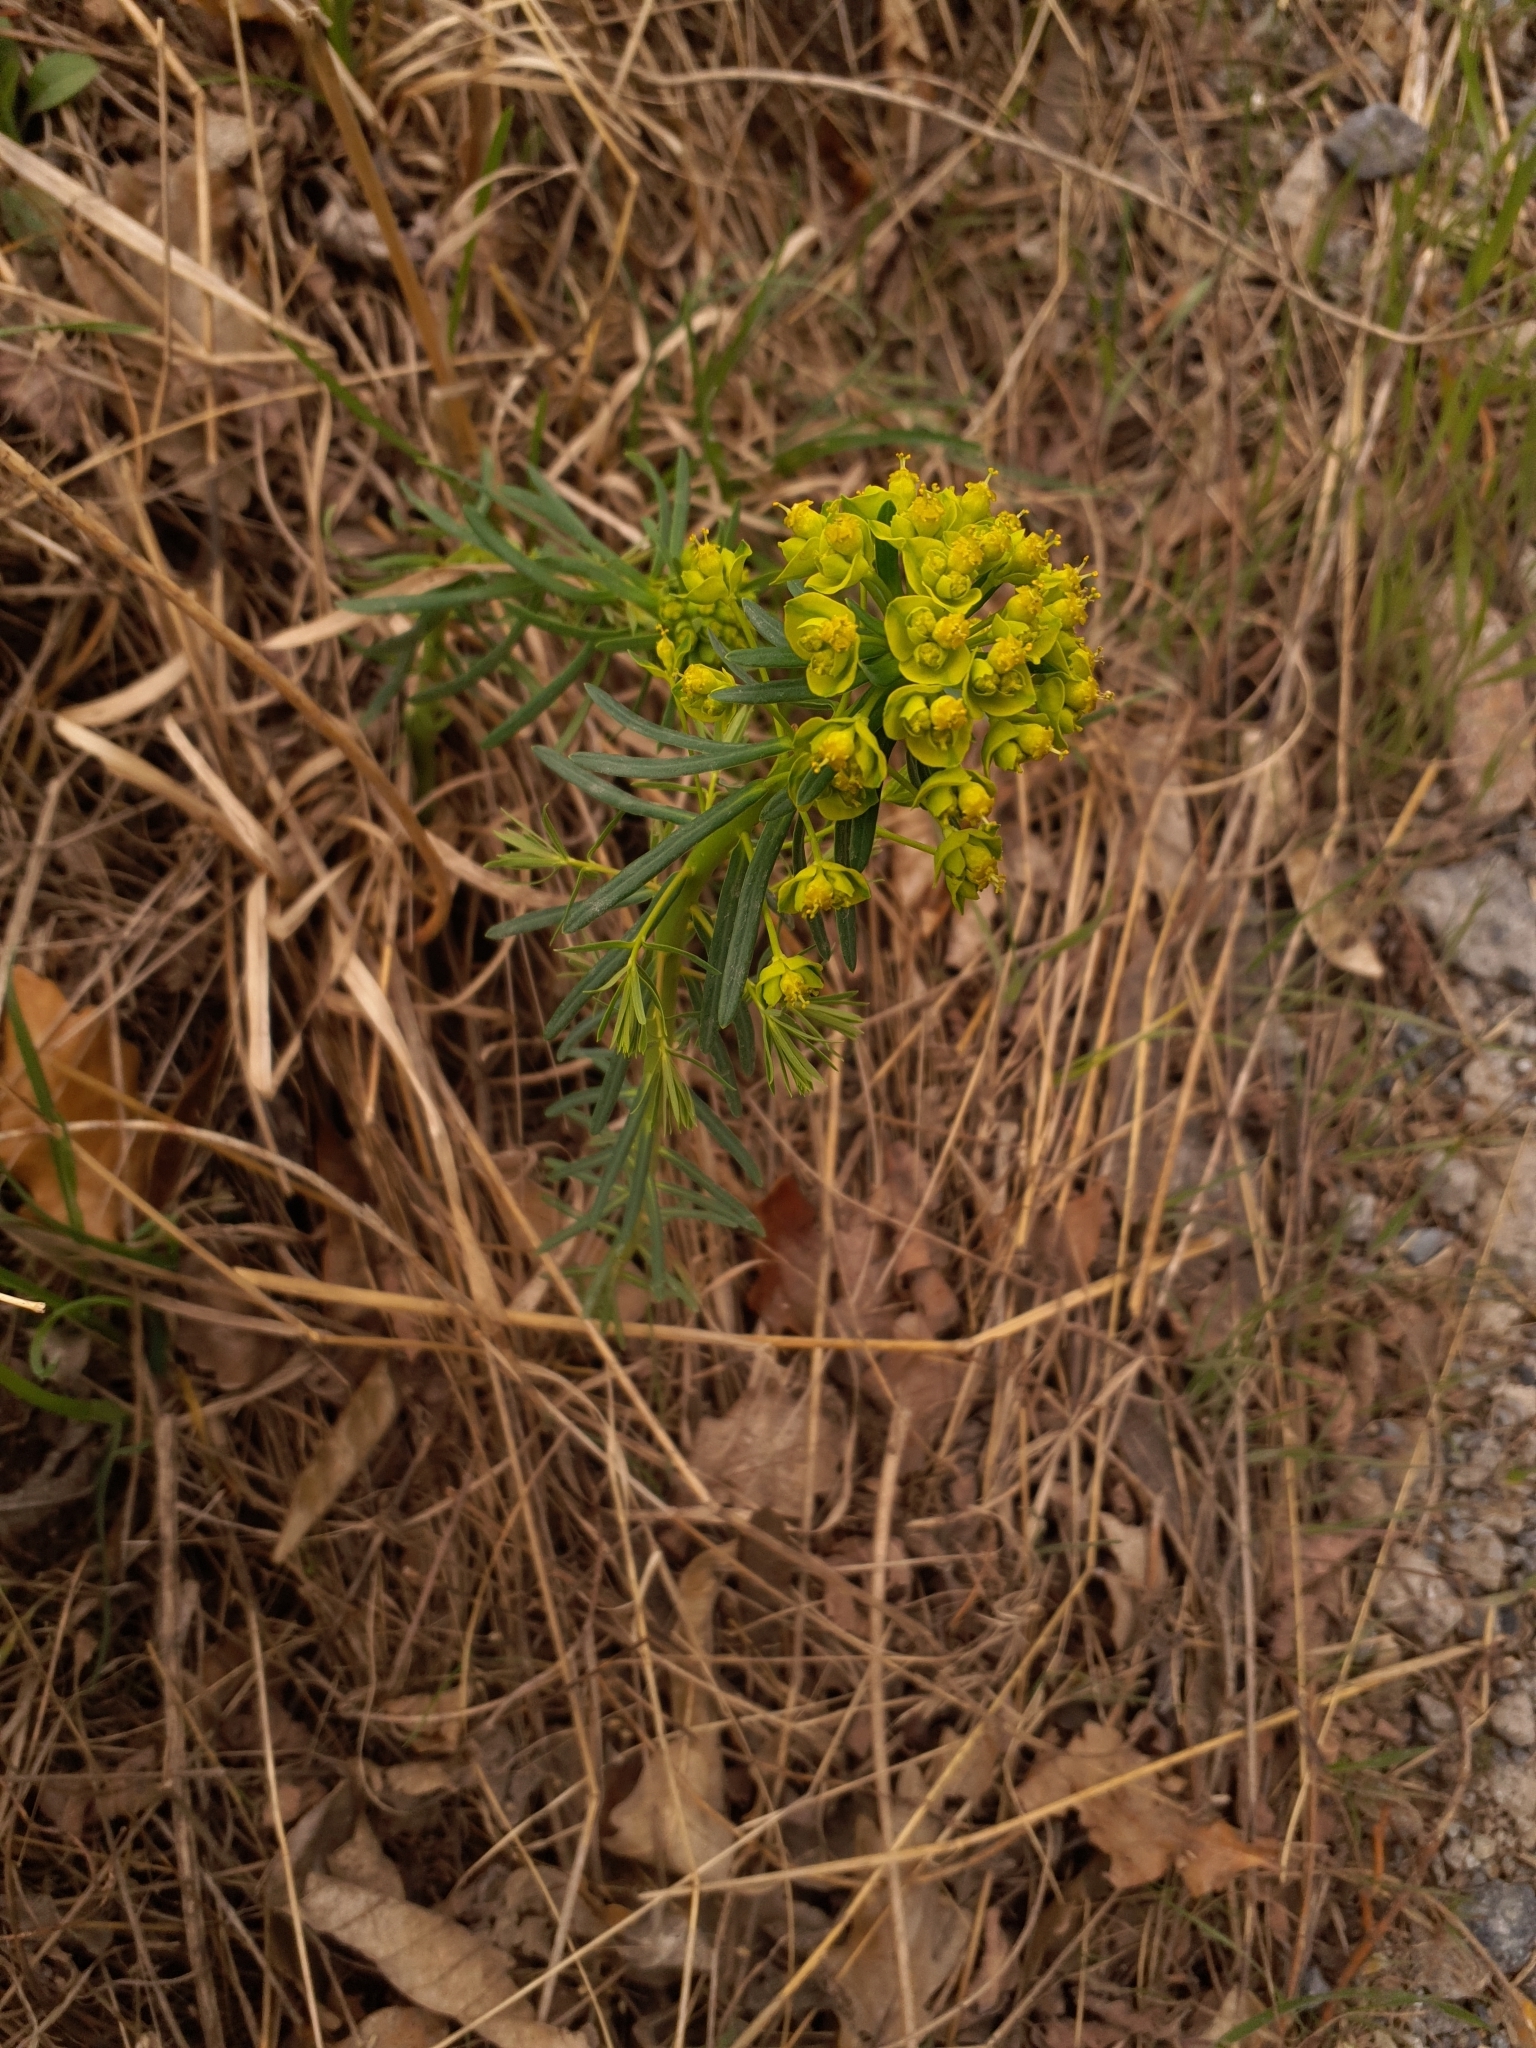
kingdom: Plantae
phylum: Tracheophyta
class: Magnoliopsida
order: Malpighiales
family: Euphorbiaceae
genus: Euphorbia
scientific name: Euphorbia cyparissias
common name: Cypress spurge
